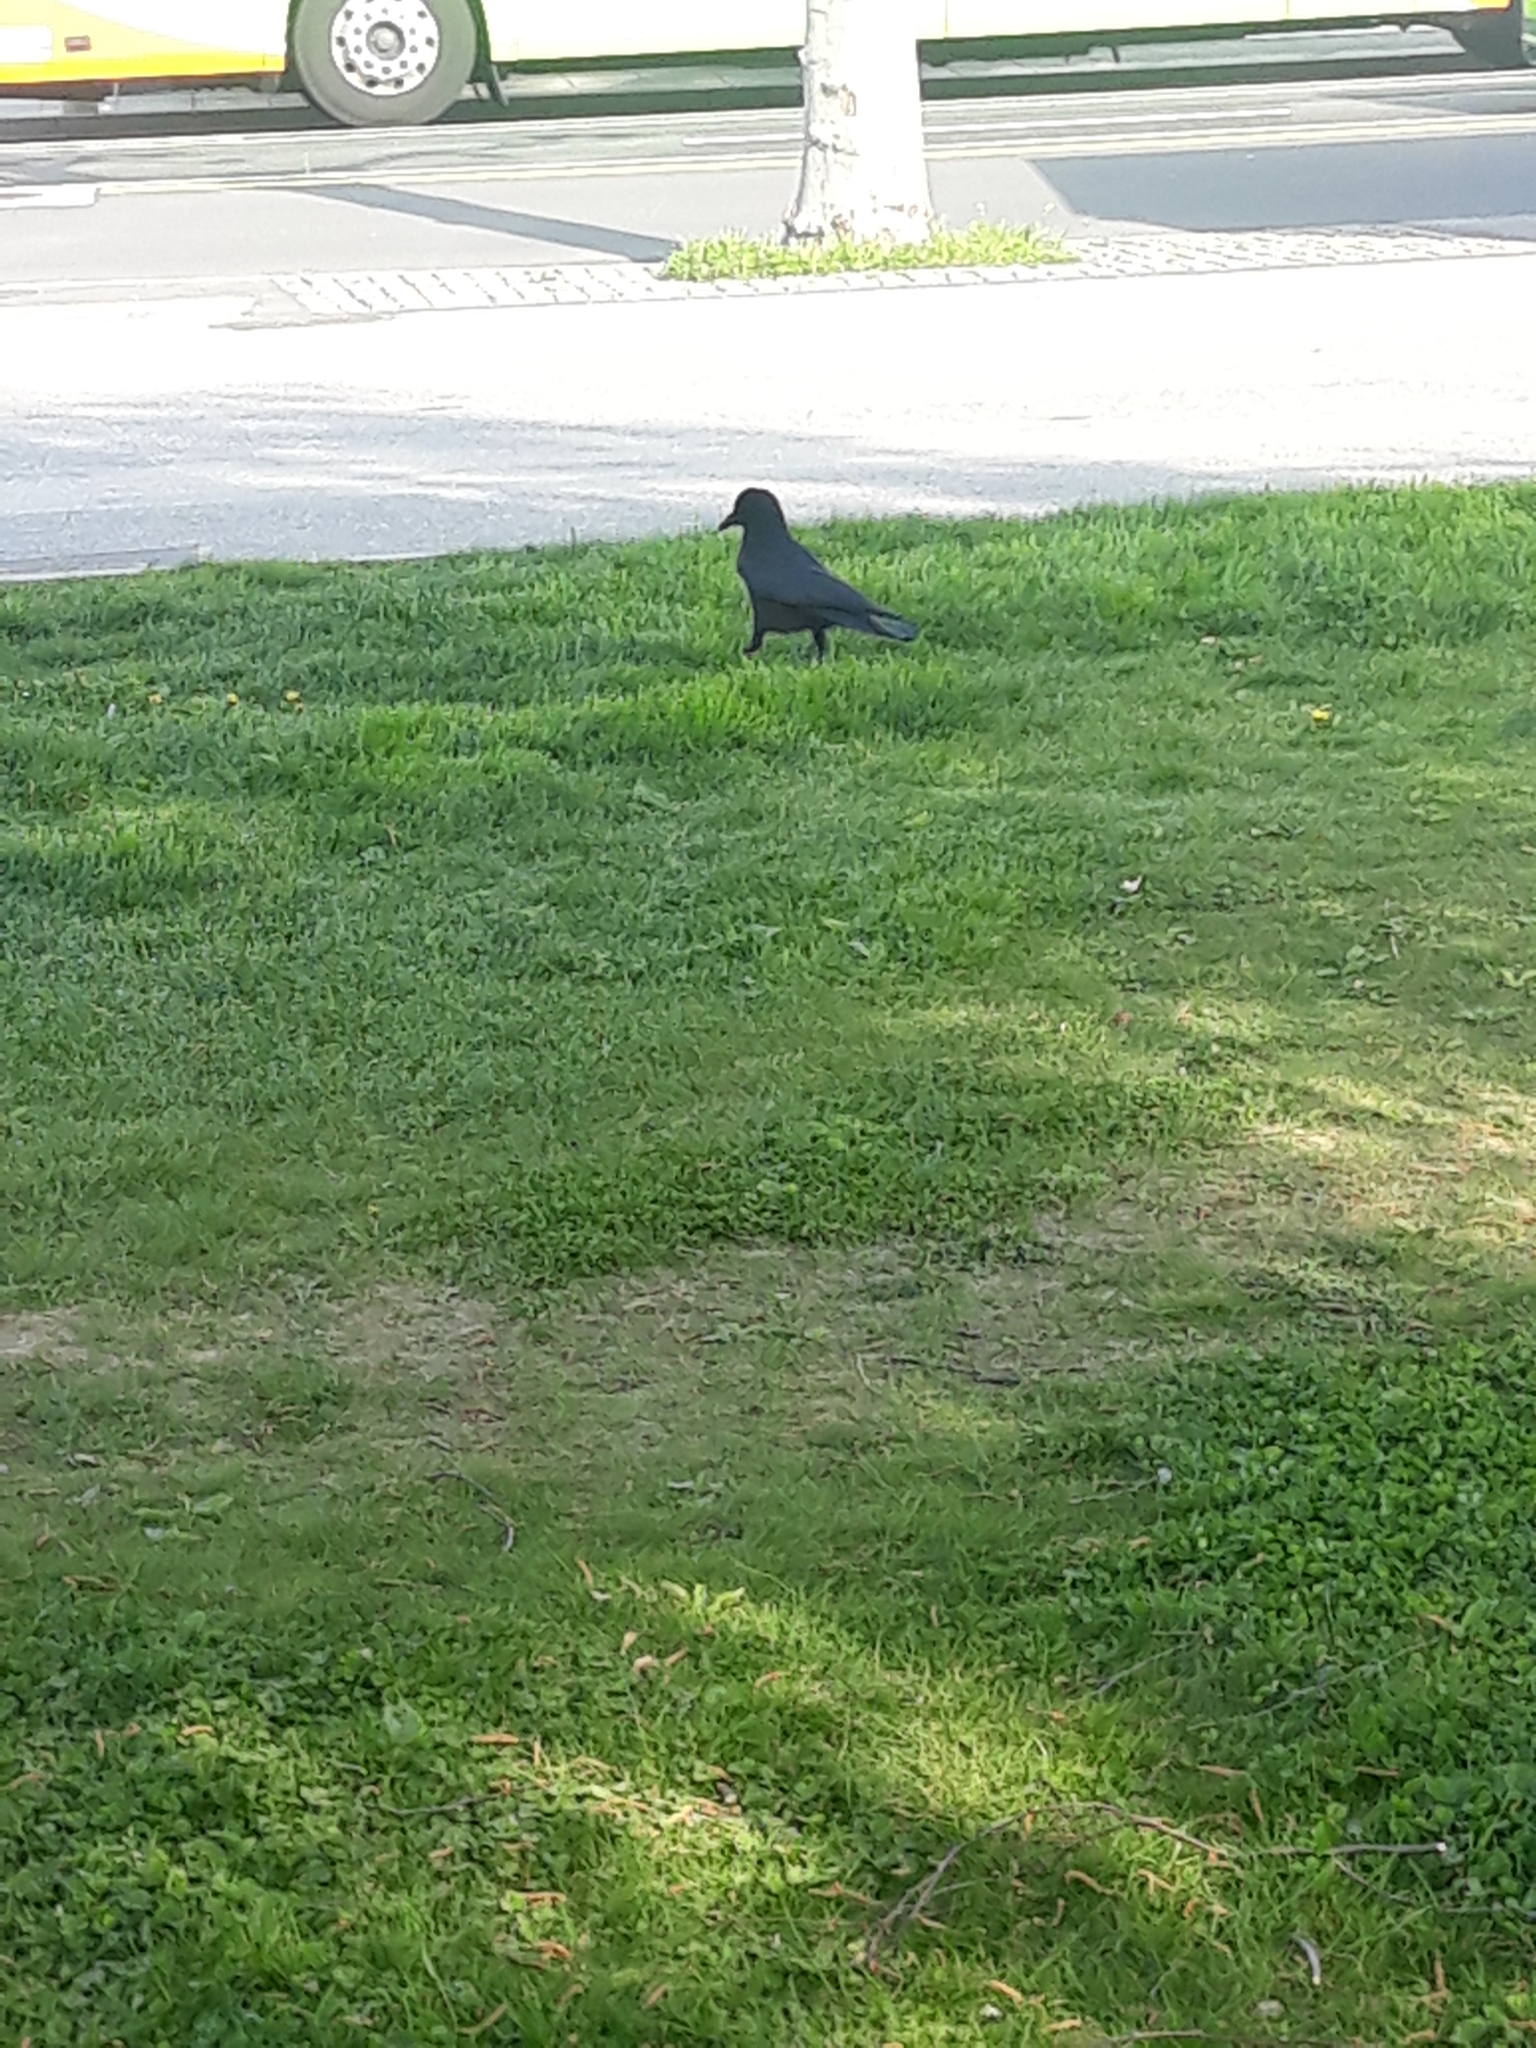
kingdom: Animalia
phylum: Chordata
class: Aves
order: Passeriformes
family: Corvidae
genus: Corvus
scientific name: Corvus corone
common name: Carrion crow
